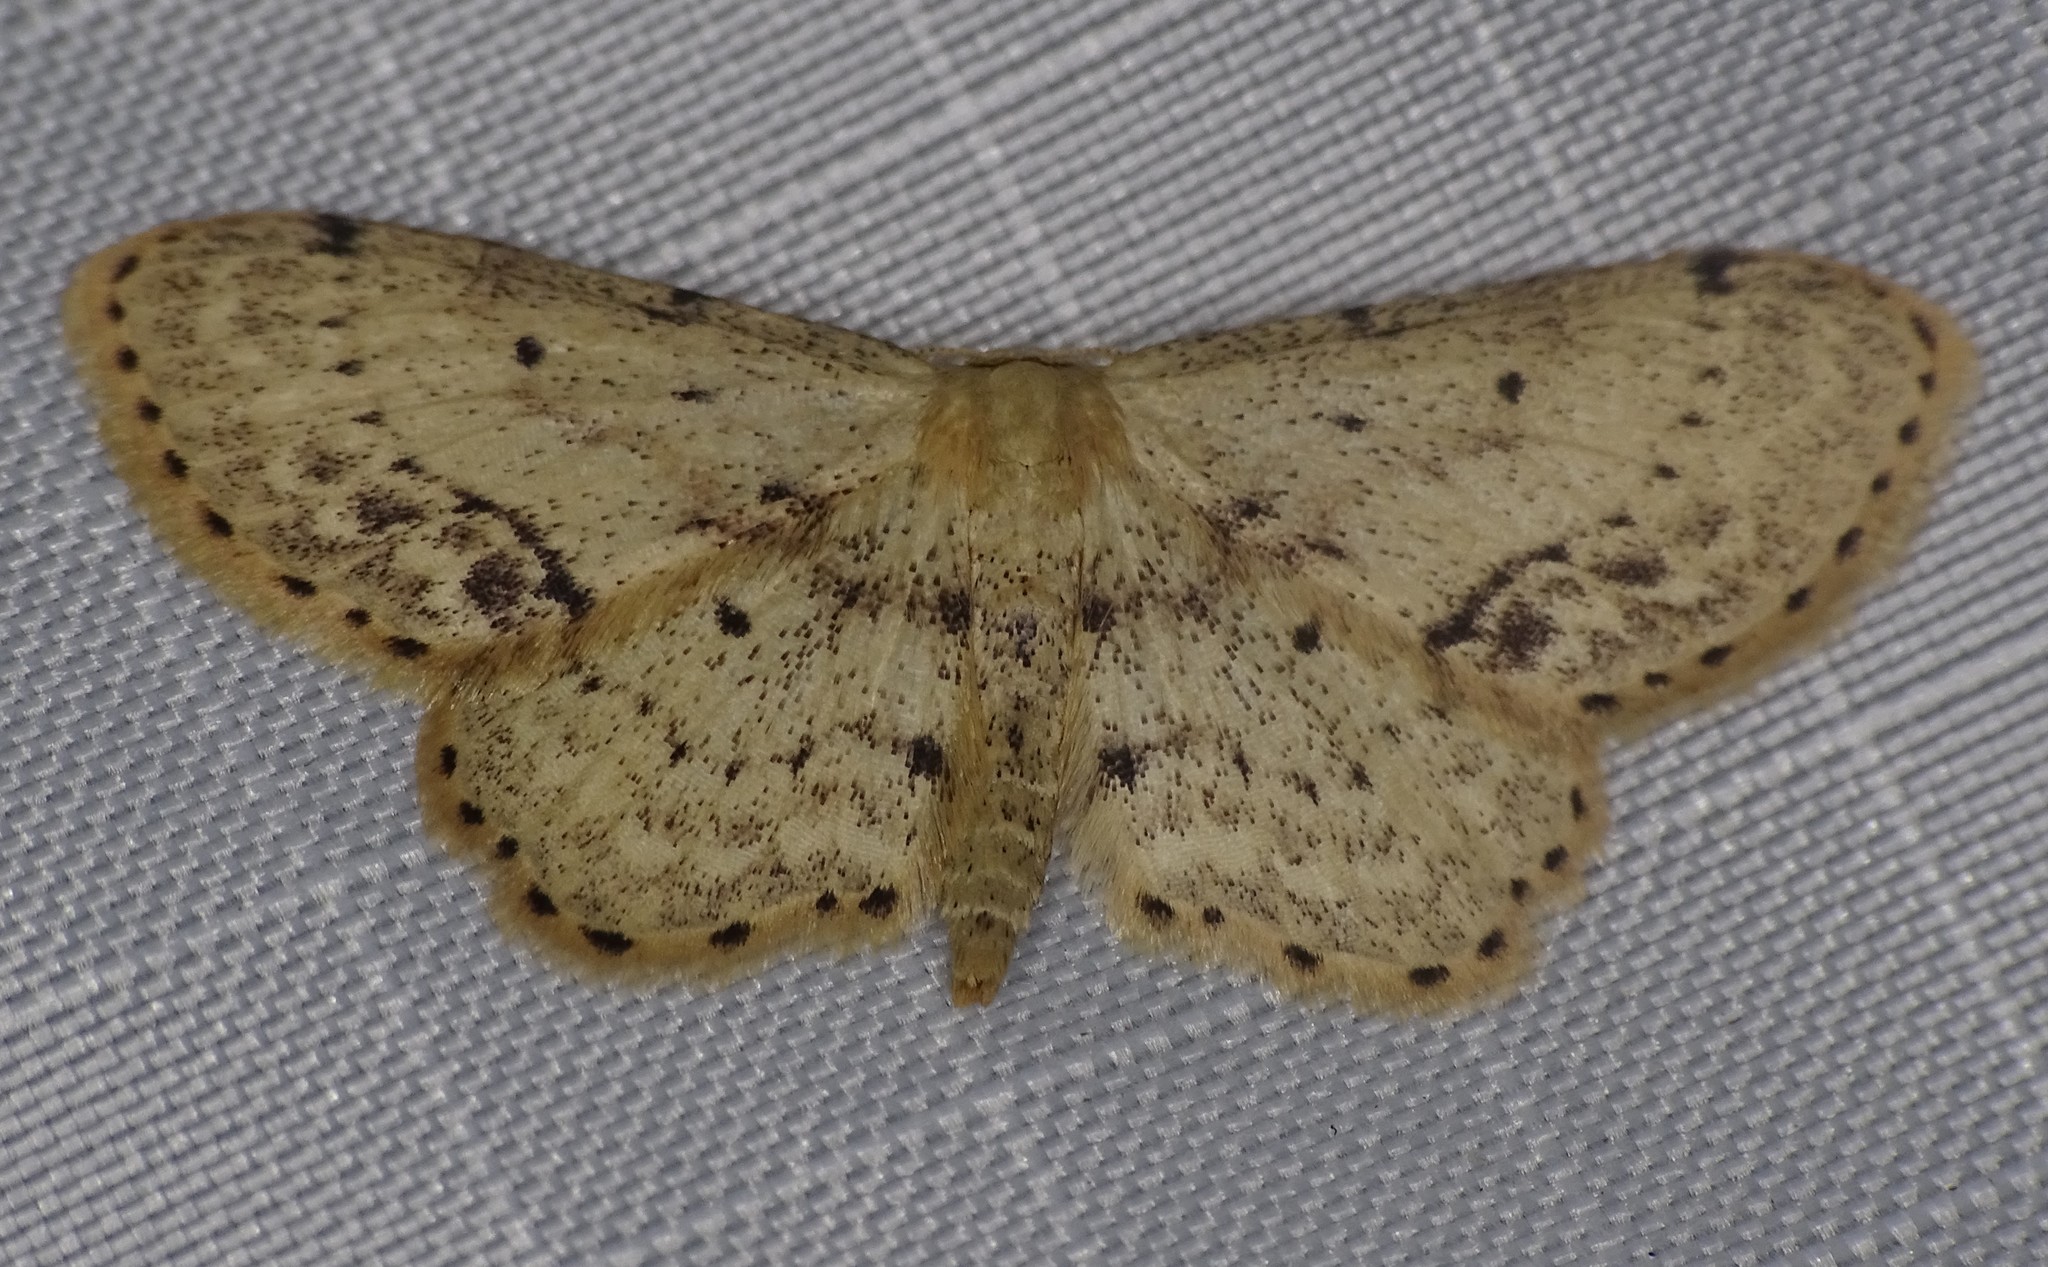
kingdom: Animalia
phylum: Arthropoda
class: Insecta
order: Lepidoptera
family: Geometridae
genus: Idaea
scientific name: Idaea dimidiata
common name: Single-dotted wave
